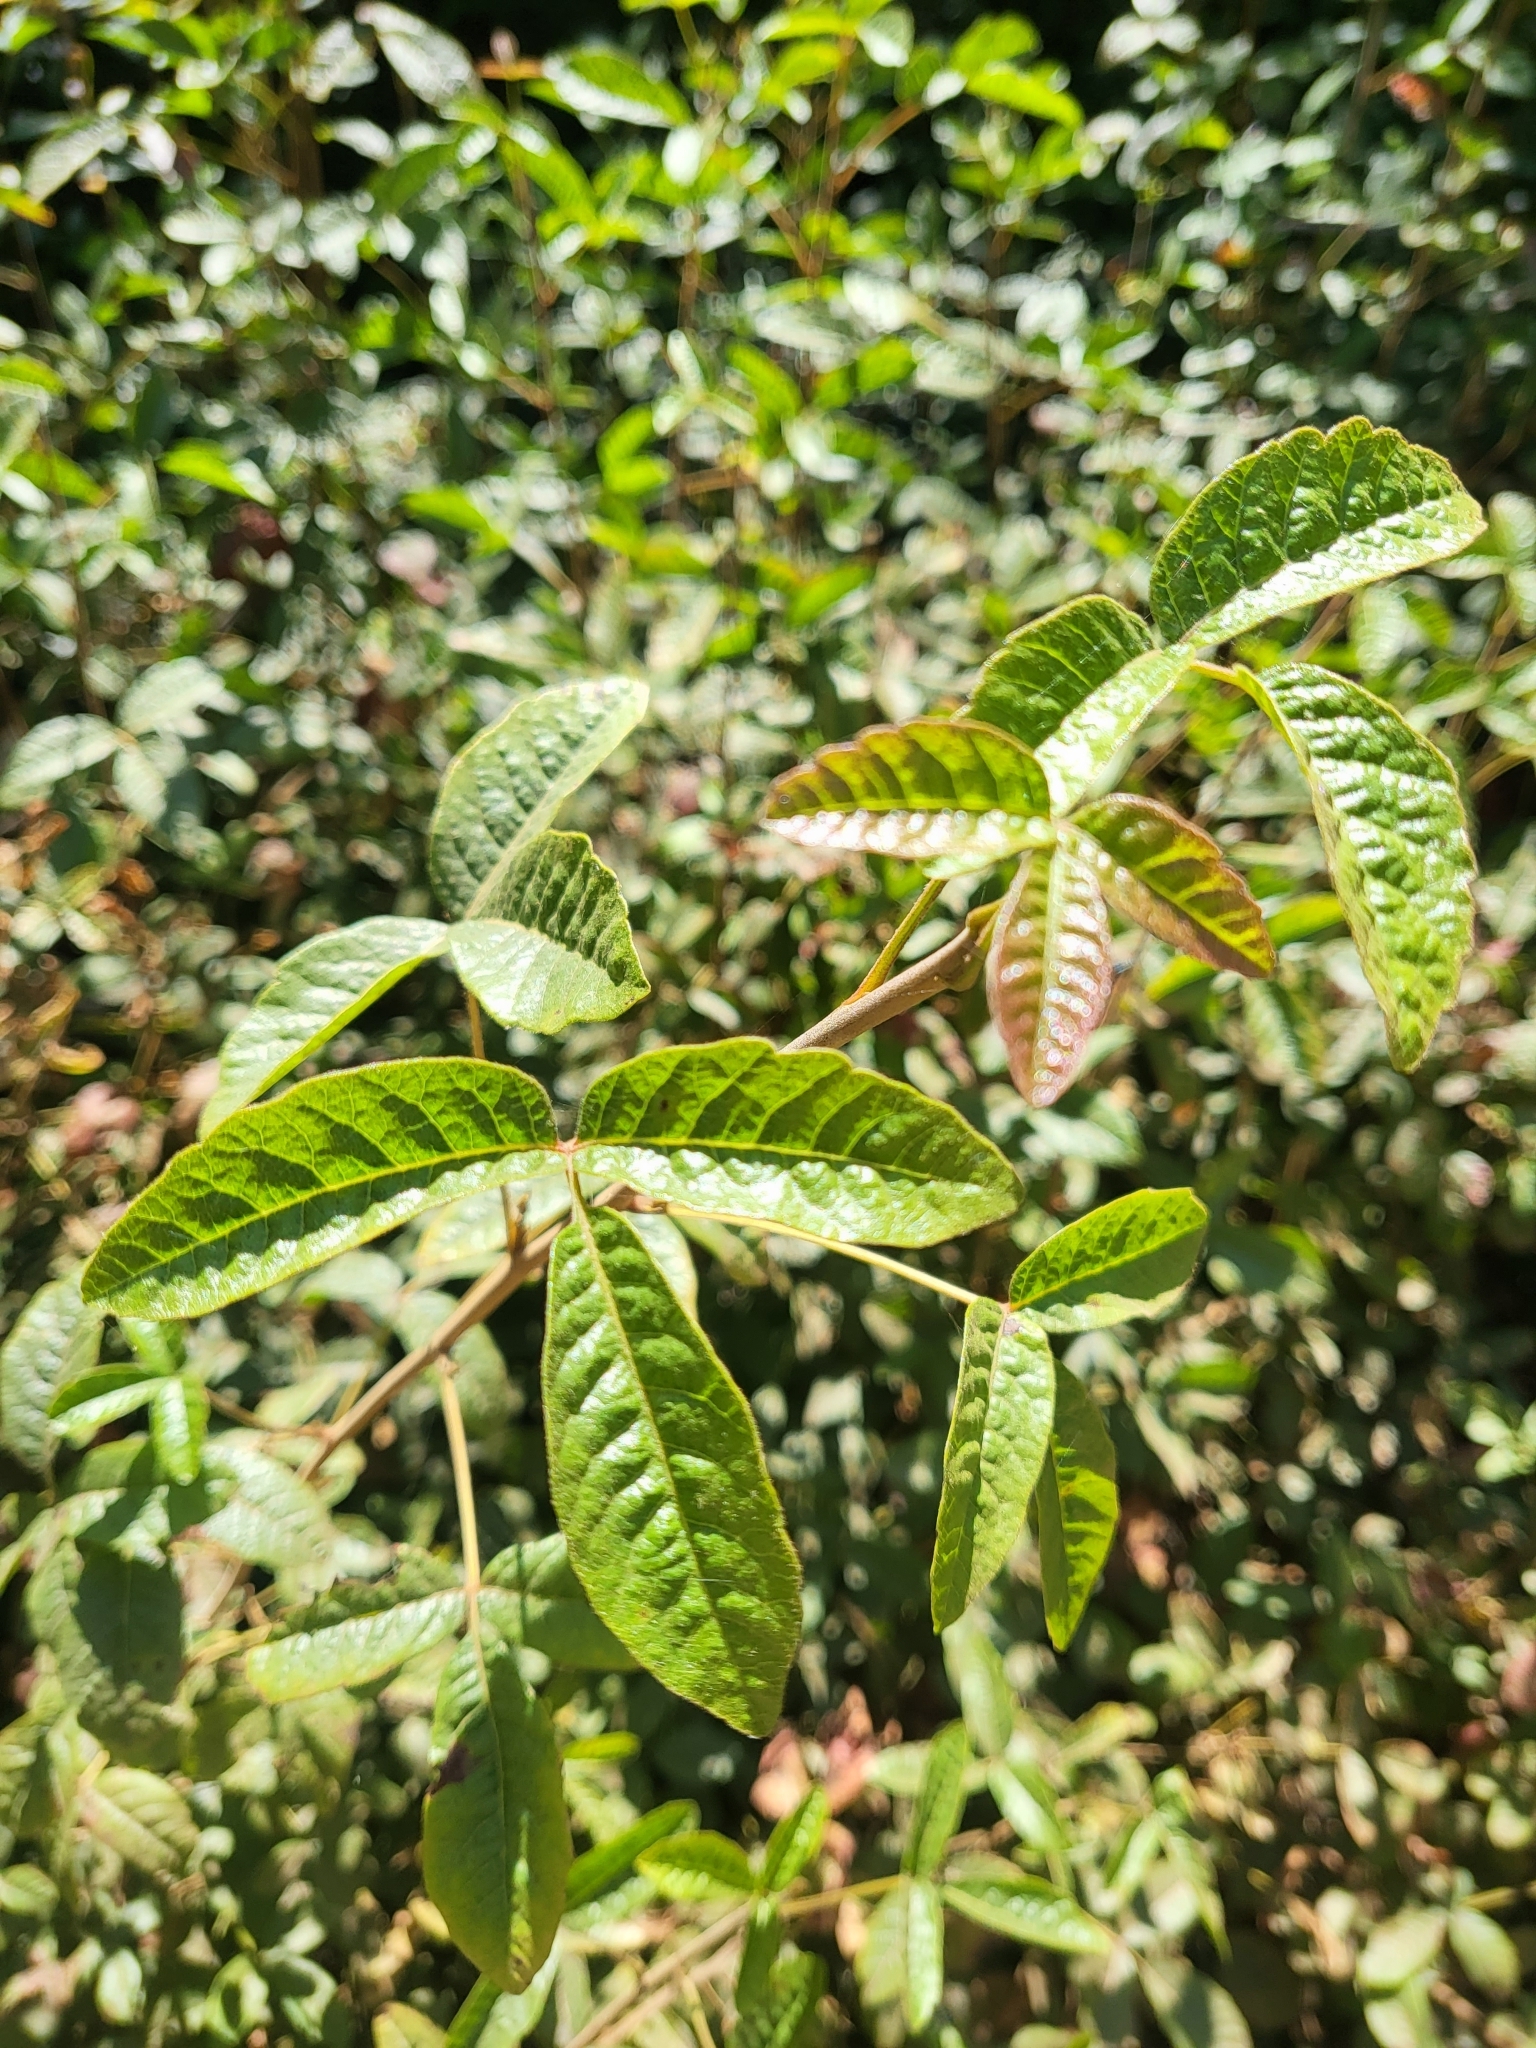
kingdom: Plantae
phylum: Tracheophyta
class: Magnoliopsida
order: Sapindales
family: Anacardiaceae
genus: Toxicodendron
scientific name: Toxicodendron diversilobum
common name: Pacific poison-oak
